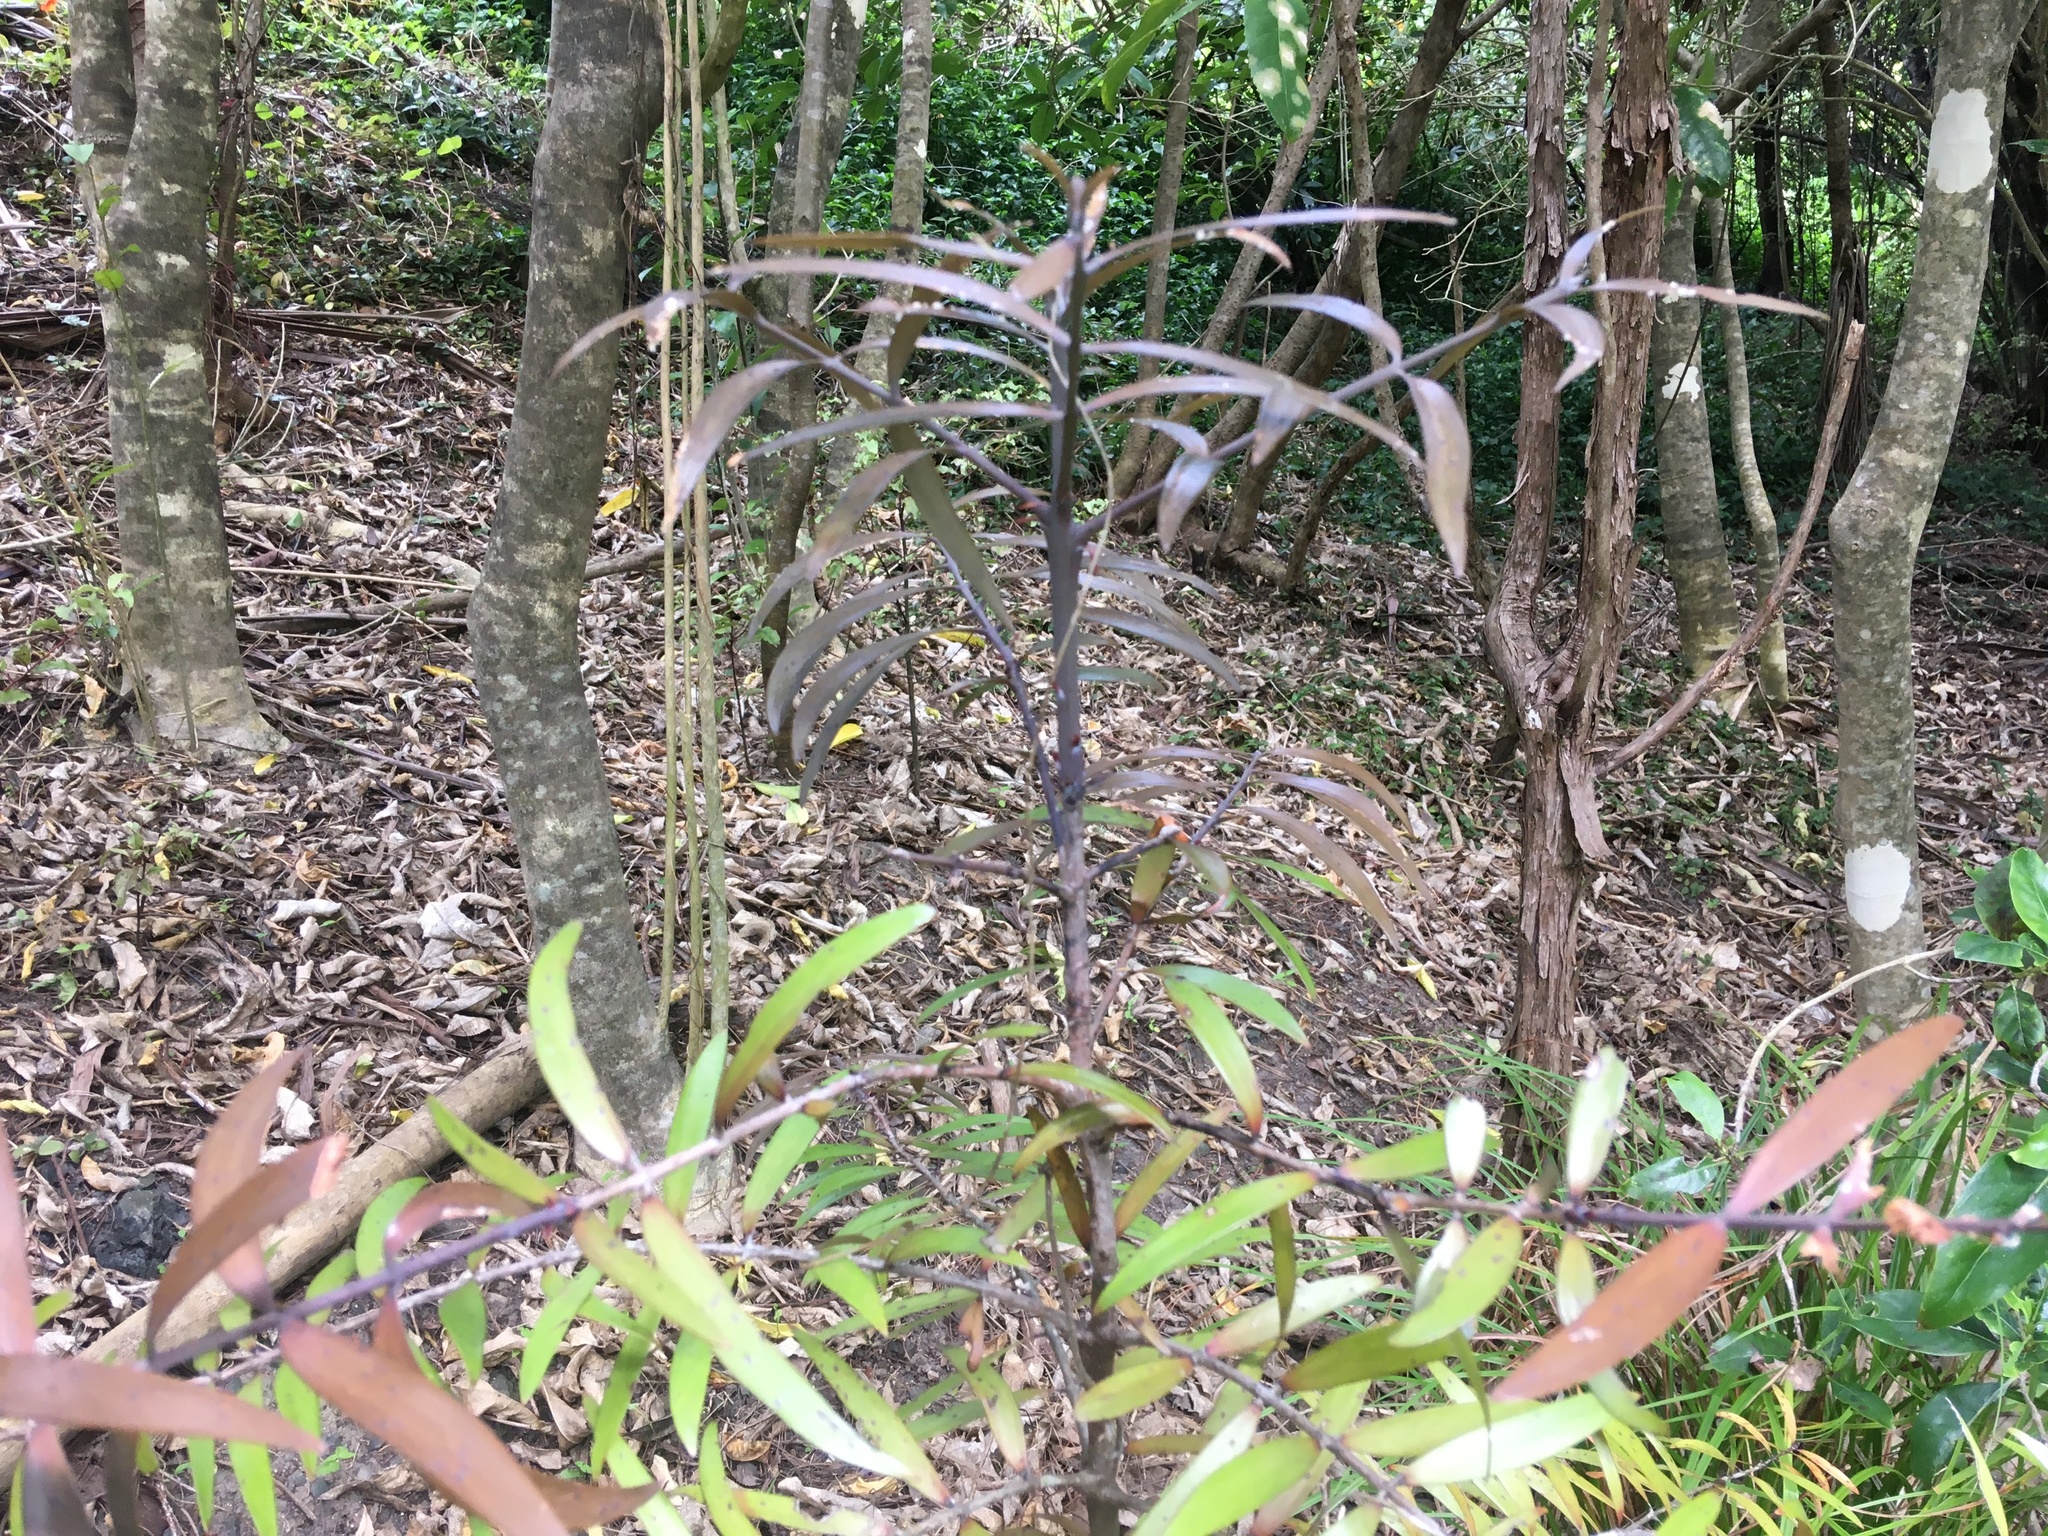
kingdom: Plantae
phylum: Tracheophyta
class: Pinopsida
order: Pinales
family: Araucariaceae
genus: Agathis
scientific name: Agathis australis
